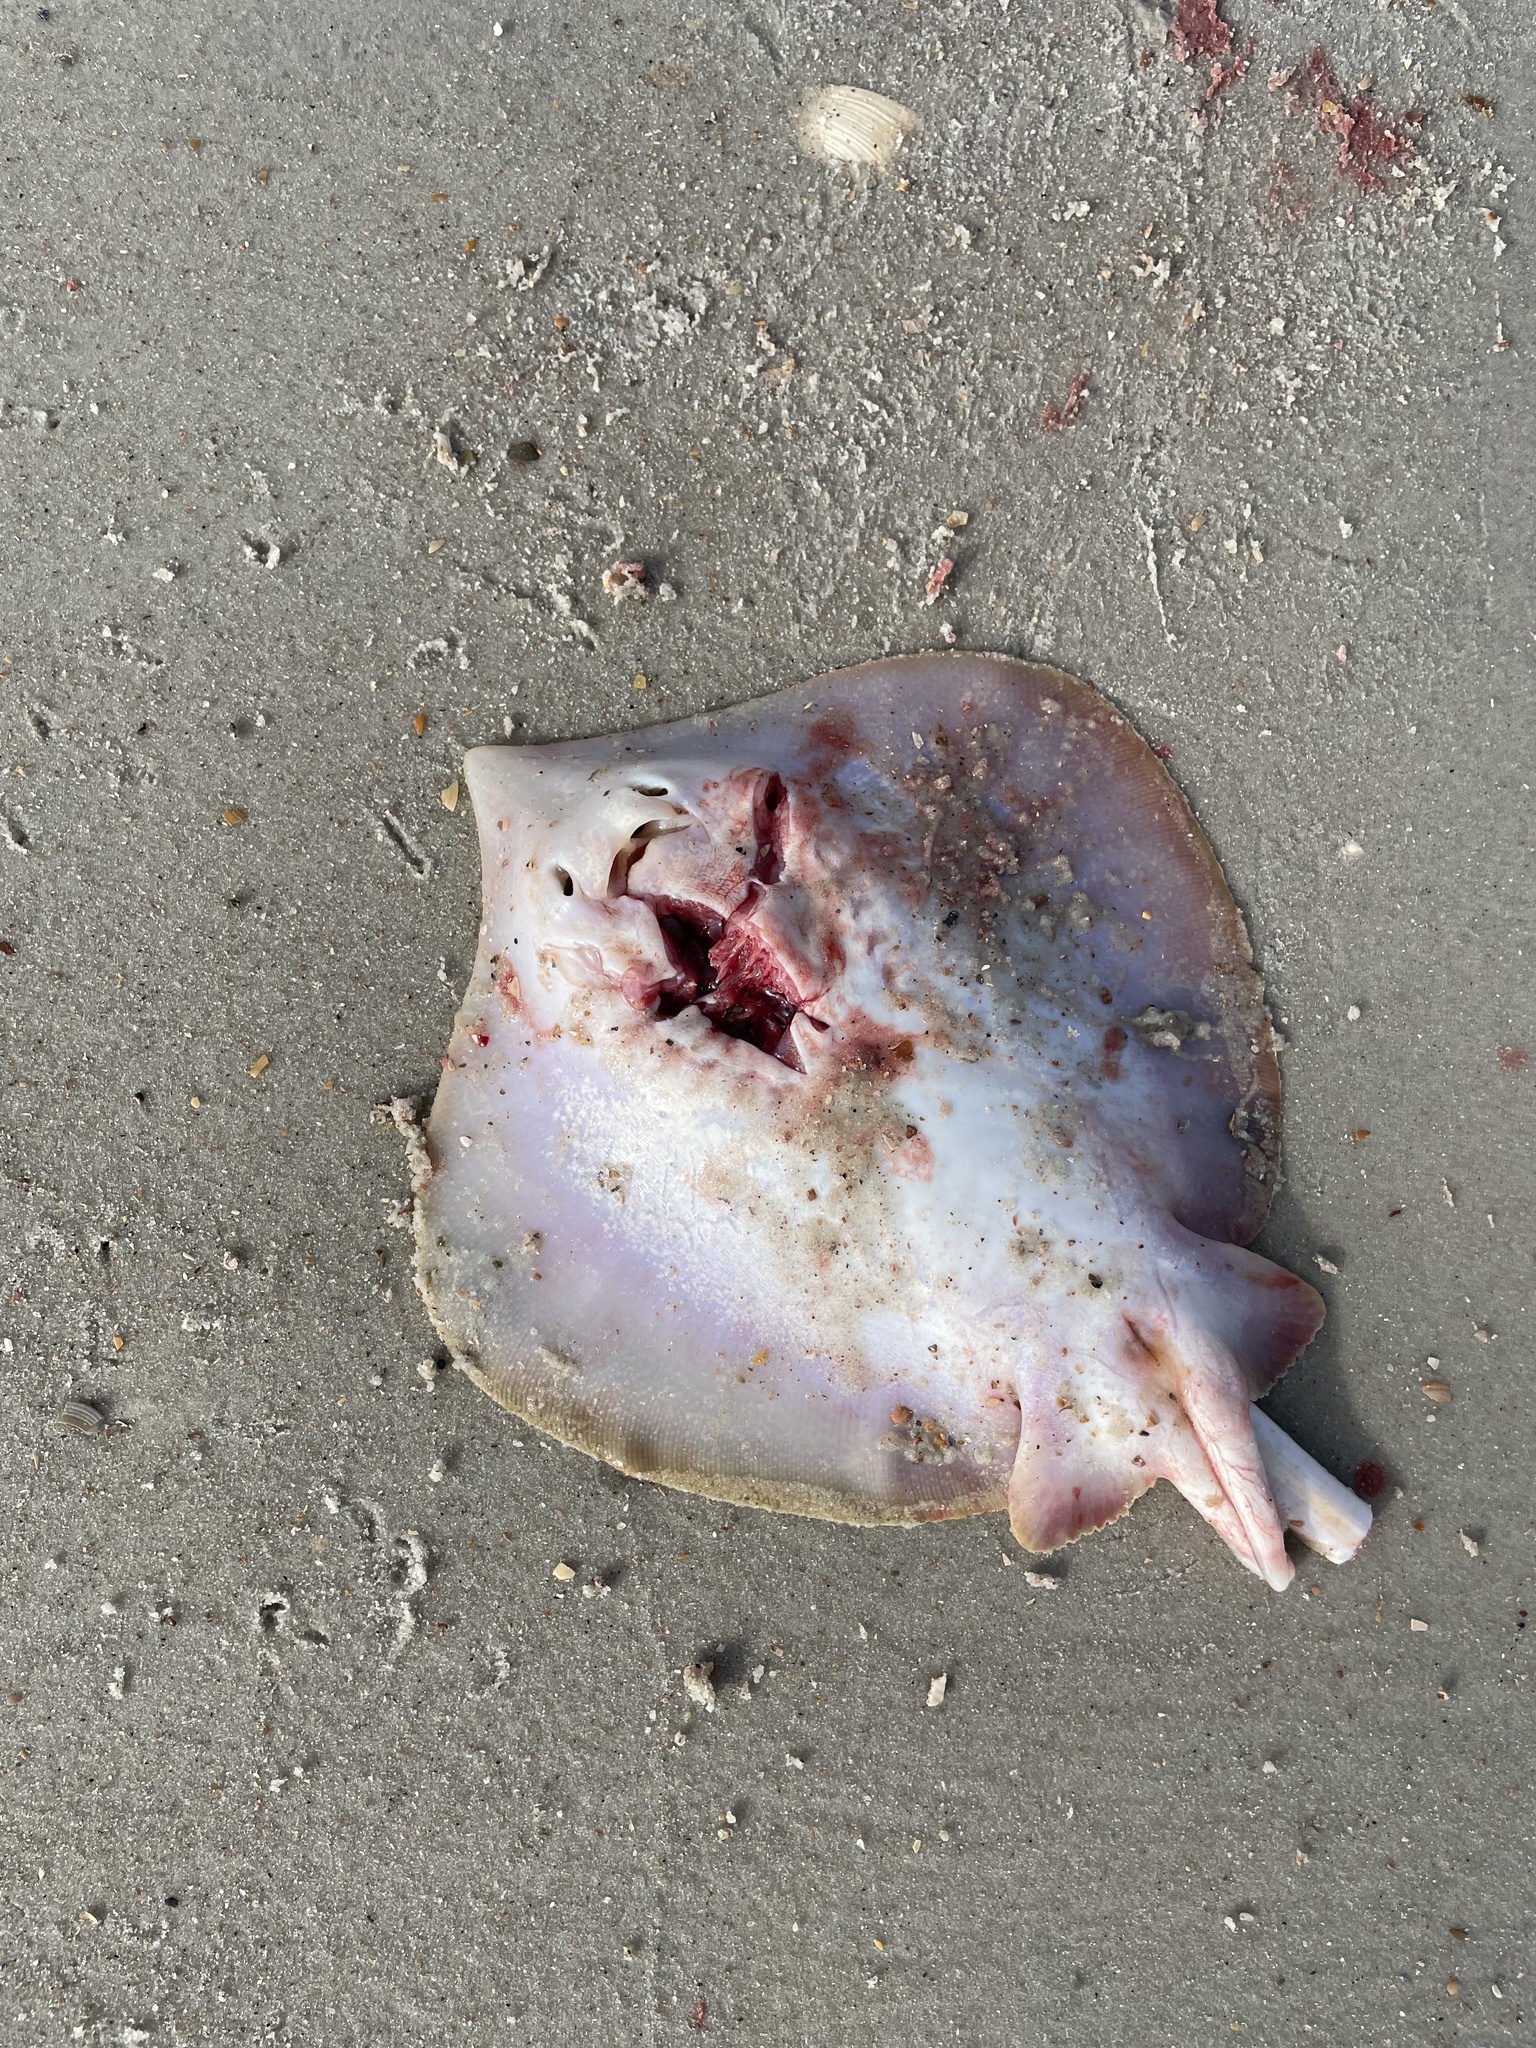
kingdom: Animalia
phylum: Chordata
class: Elasmobranchii
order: Myliobatiformes
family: Dasyatidae
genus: Hypanus
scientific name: Hypanus sabinus
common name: Atlantic stingray
